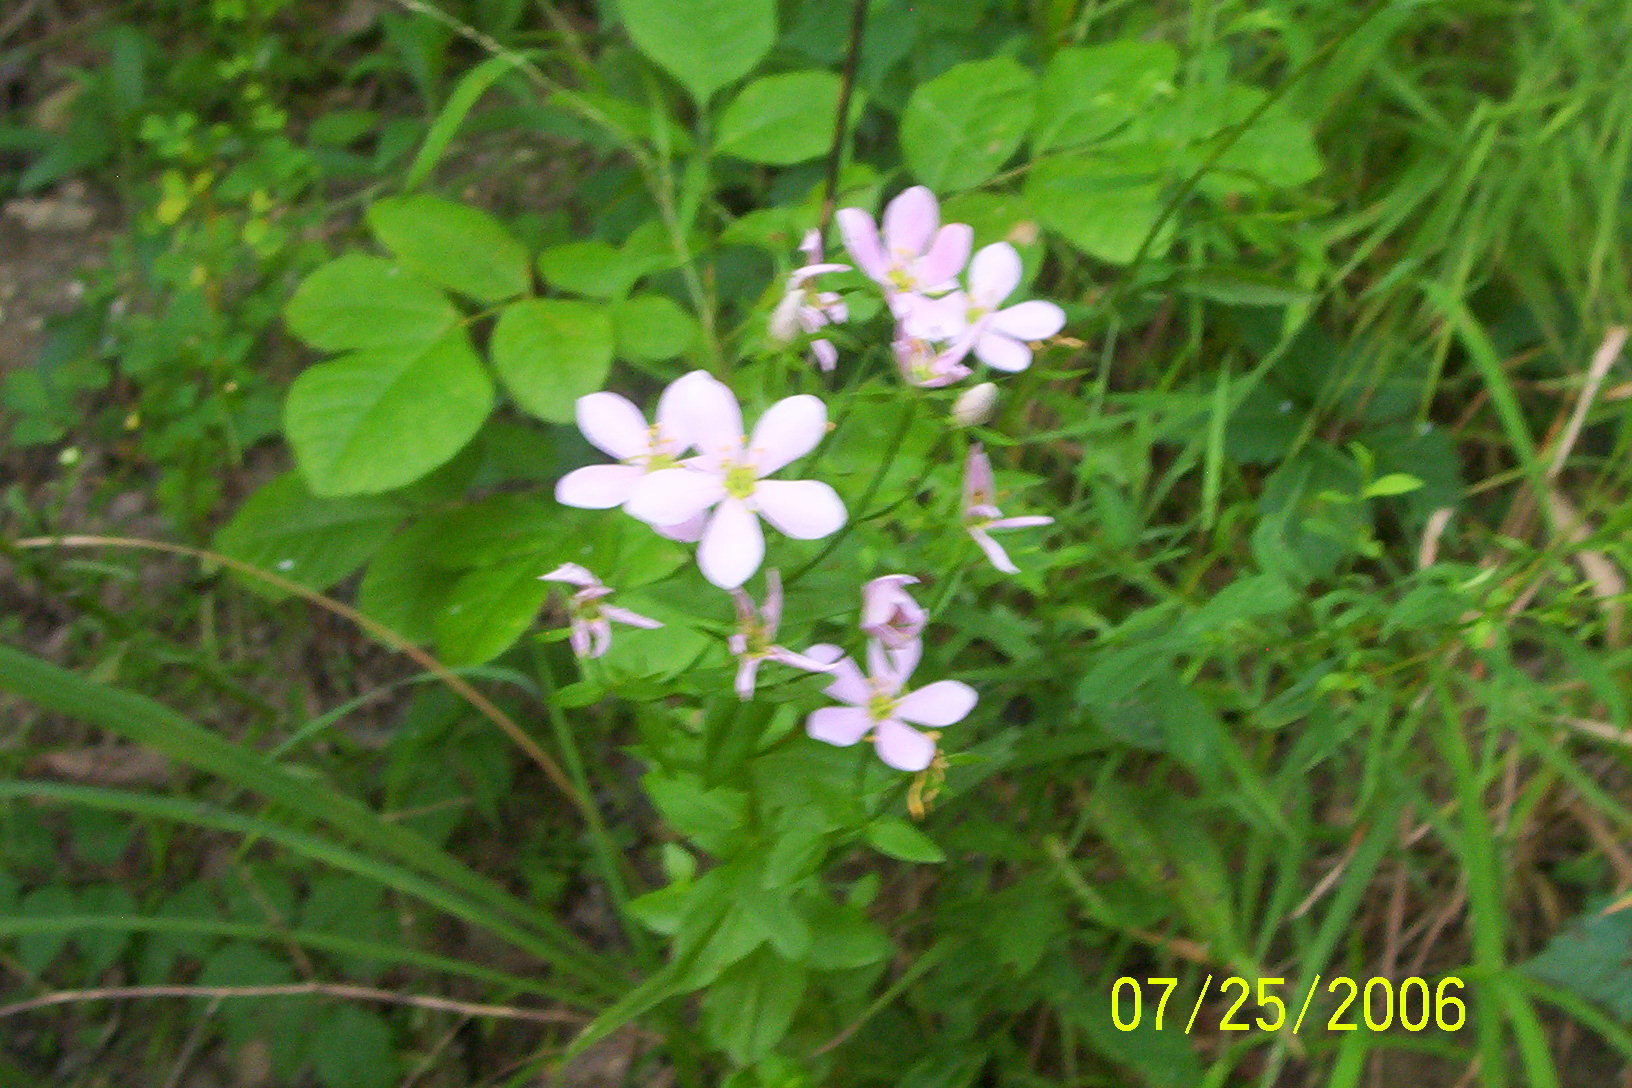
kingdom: Plantae
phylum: Tracheophyta
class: Magnoliopsida
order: Gentianales
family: Gentianaceae
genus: Sabatia
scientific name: Sabatia angularis
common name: Rose-pink
